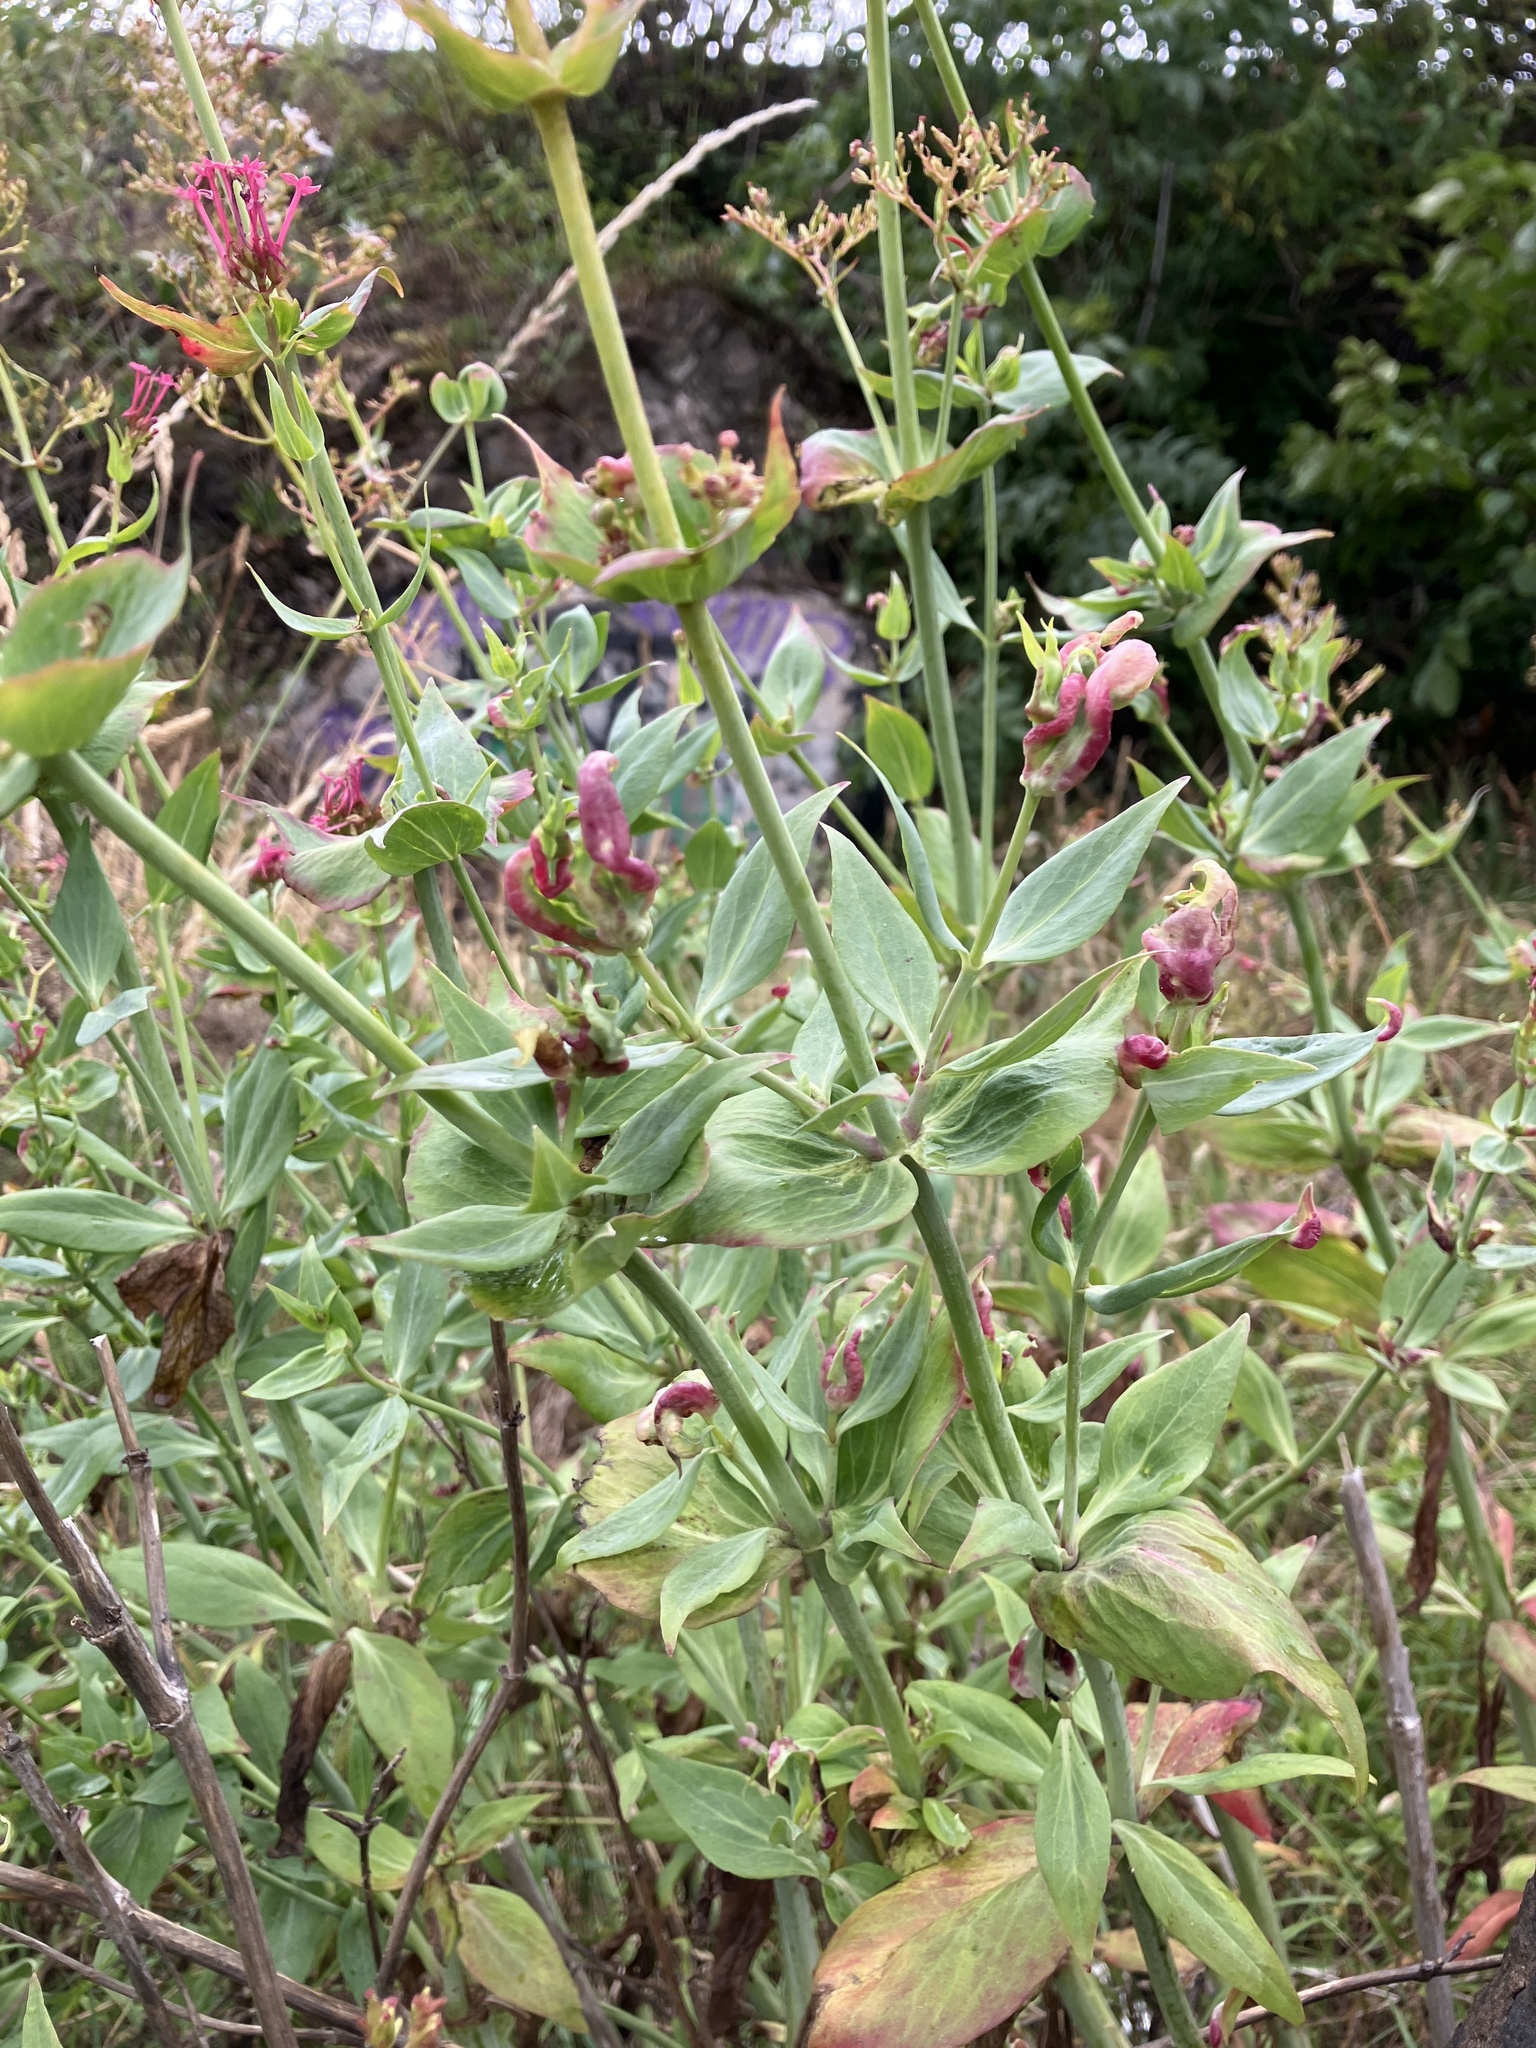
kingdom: Plantae
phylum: Tracheophyta
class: Magnoliopsida
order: Dipsacales
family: Caprifoliaceae
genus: Centranthus
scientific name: Centranthus ruber
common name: Red valerian
